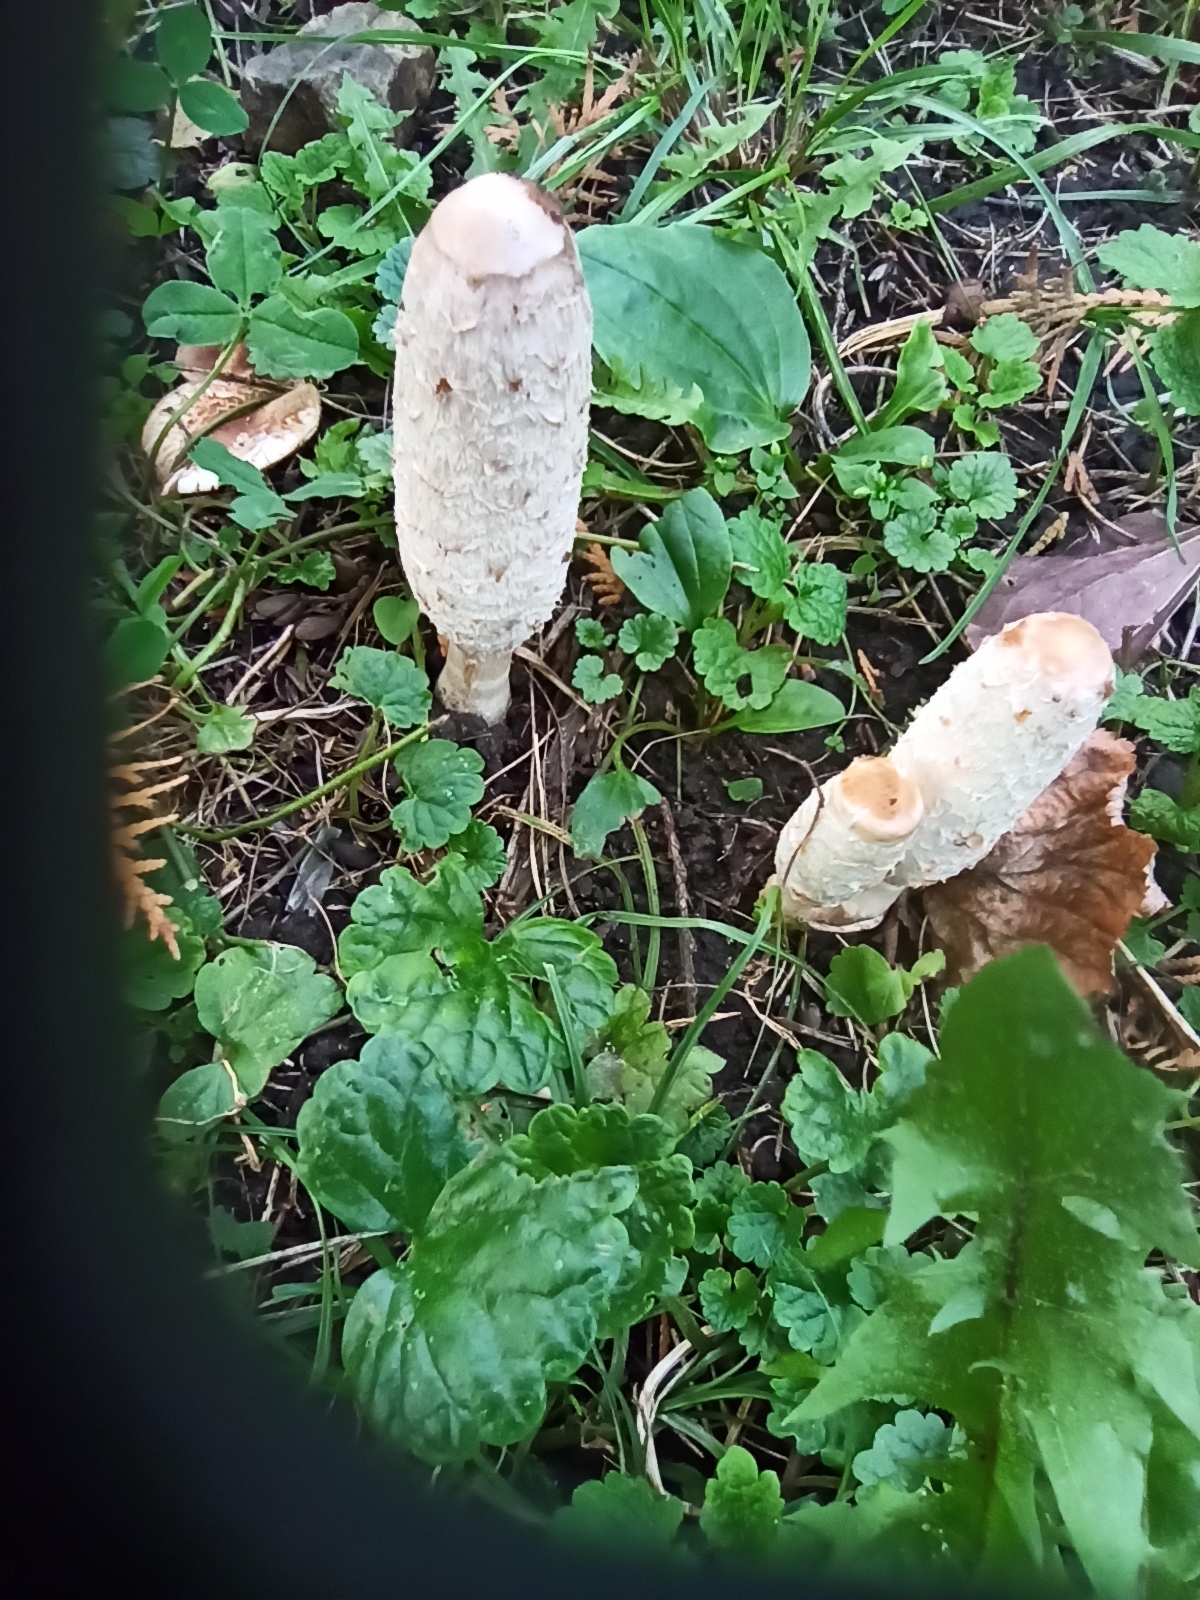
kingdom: Fungi
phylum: Basidiomycota
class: Agaricomycetes
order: Agaricales
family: Agaricaceae
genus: Coprinus
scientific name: Coprinus comatus
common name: Lawyer's wig
